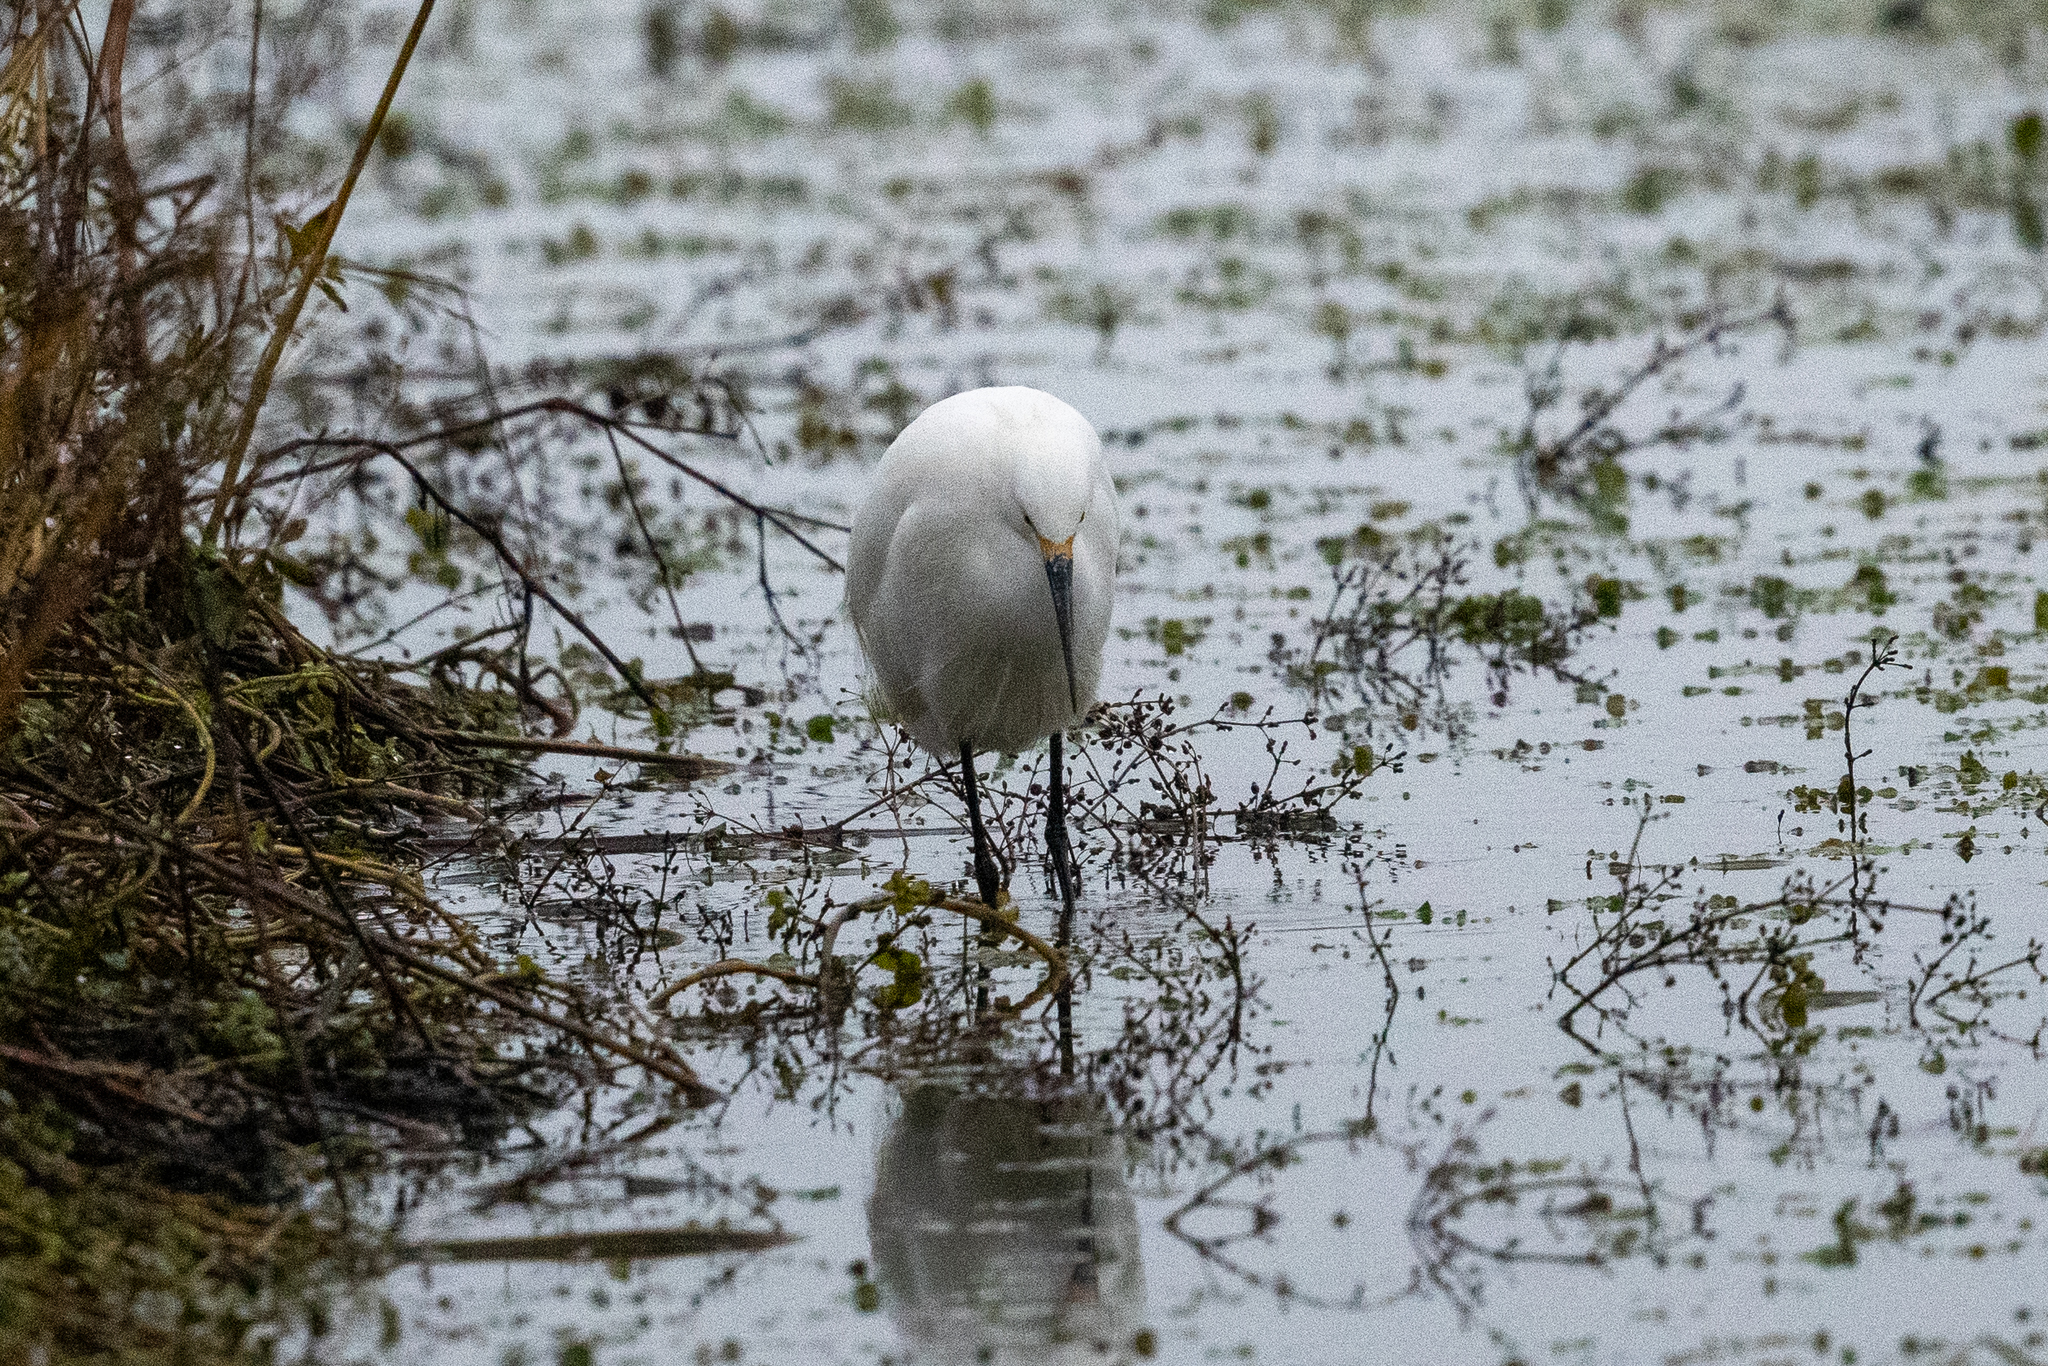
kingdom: Animalia
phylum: Chordata
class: Aves
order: Pelecaniformes
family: Ardeidae
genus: Egretta
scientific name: Egretta thula
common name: Snowy egret
